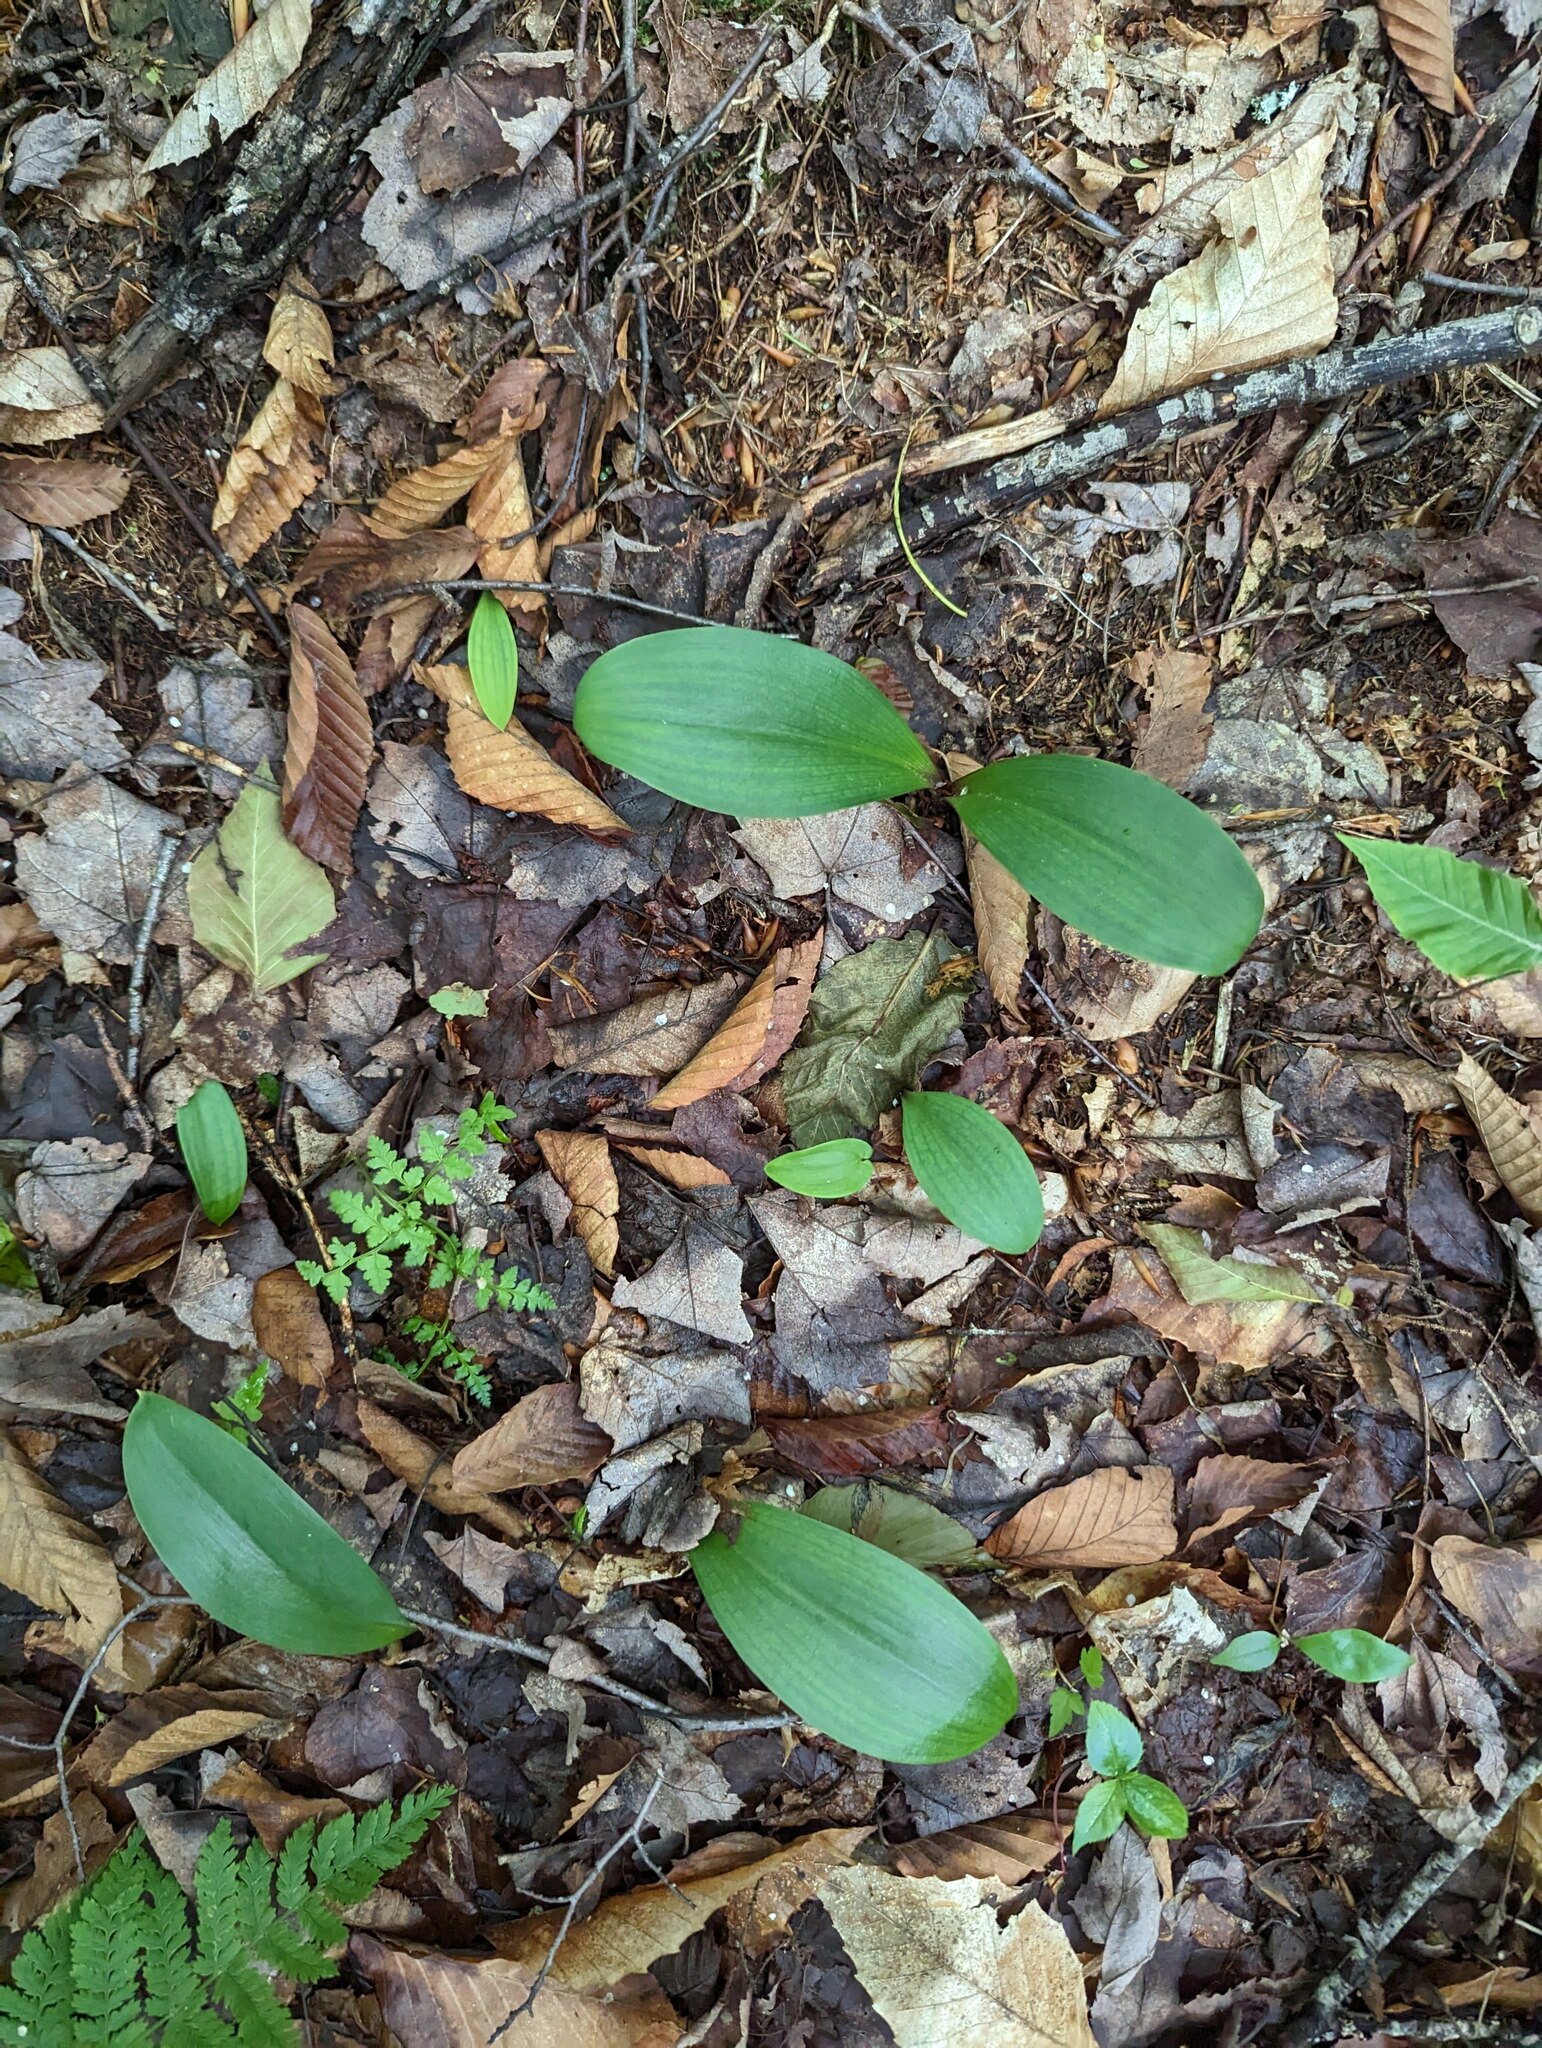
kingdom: Plantae
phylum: Tracheophyta
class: Liliopsida
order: Liliales
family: Liliaceae
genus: Clintonia
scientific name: Clintonia borealis
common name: Yellow clintonia
